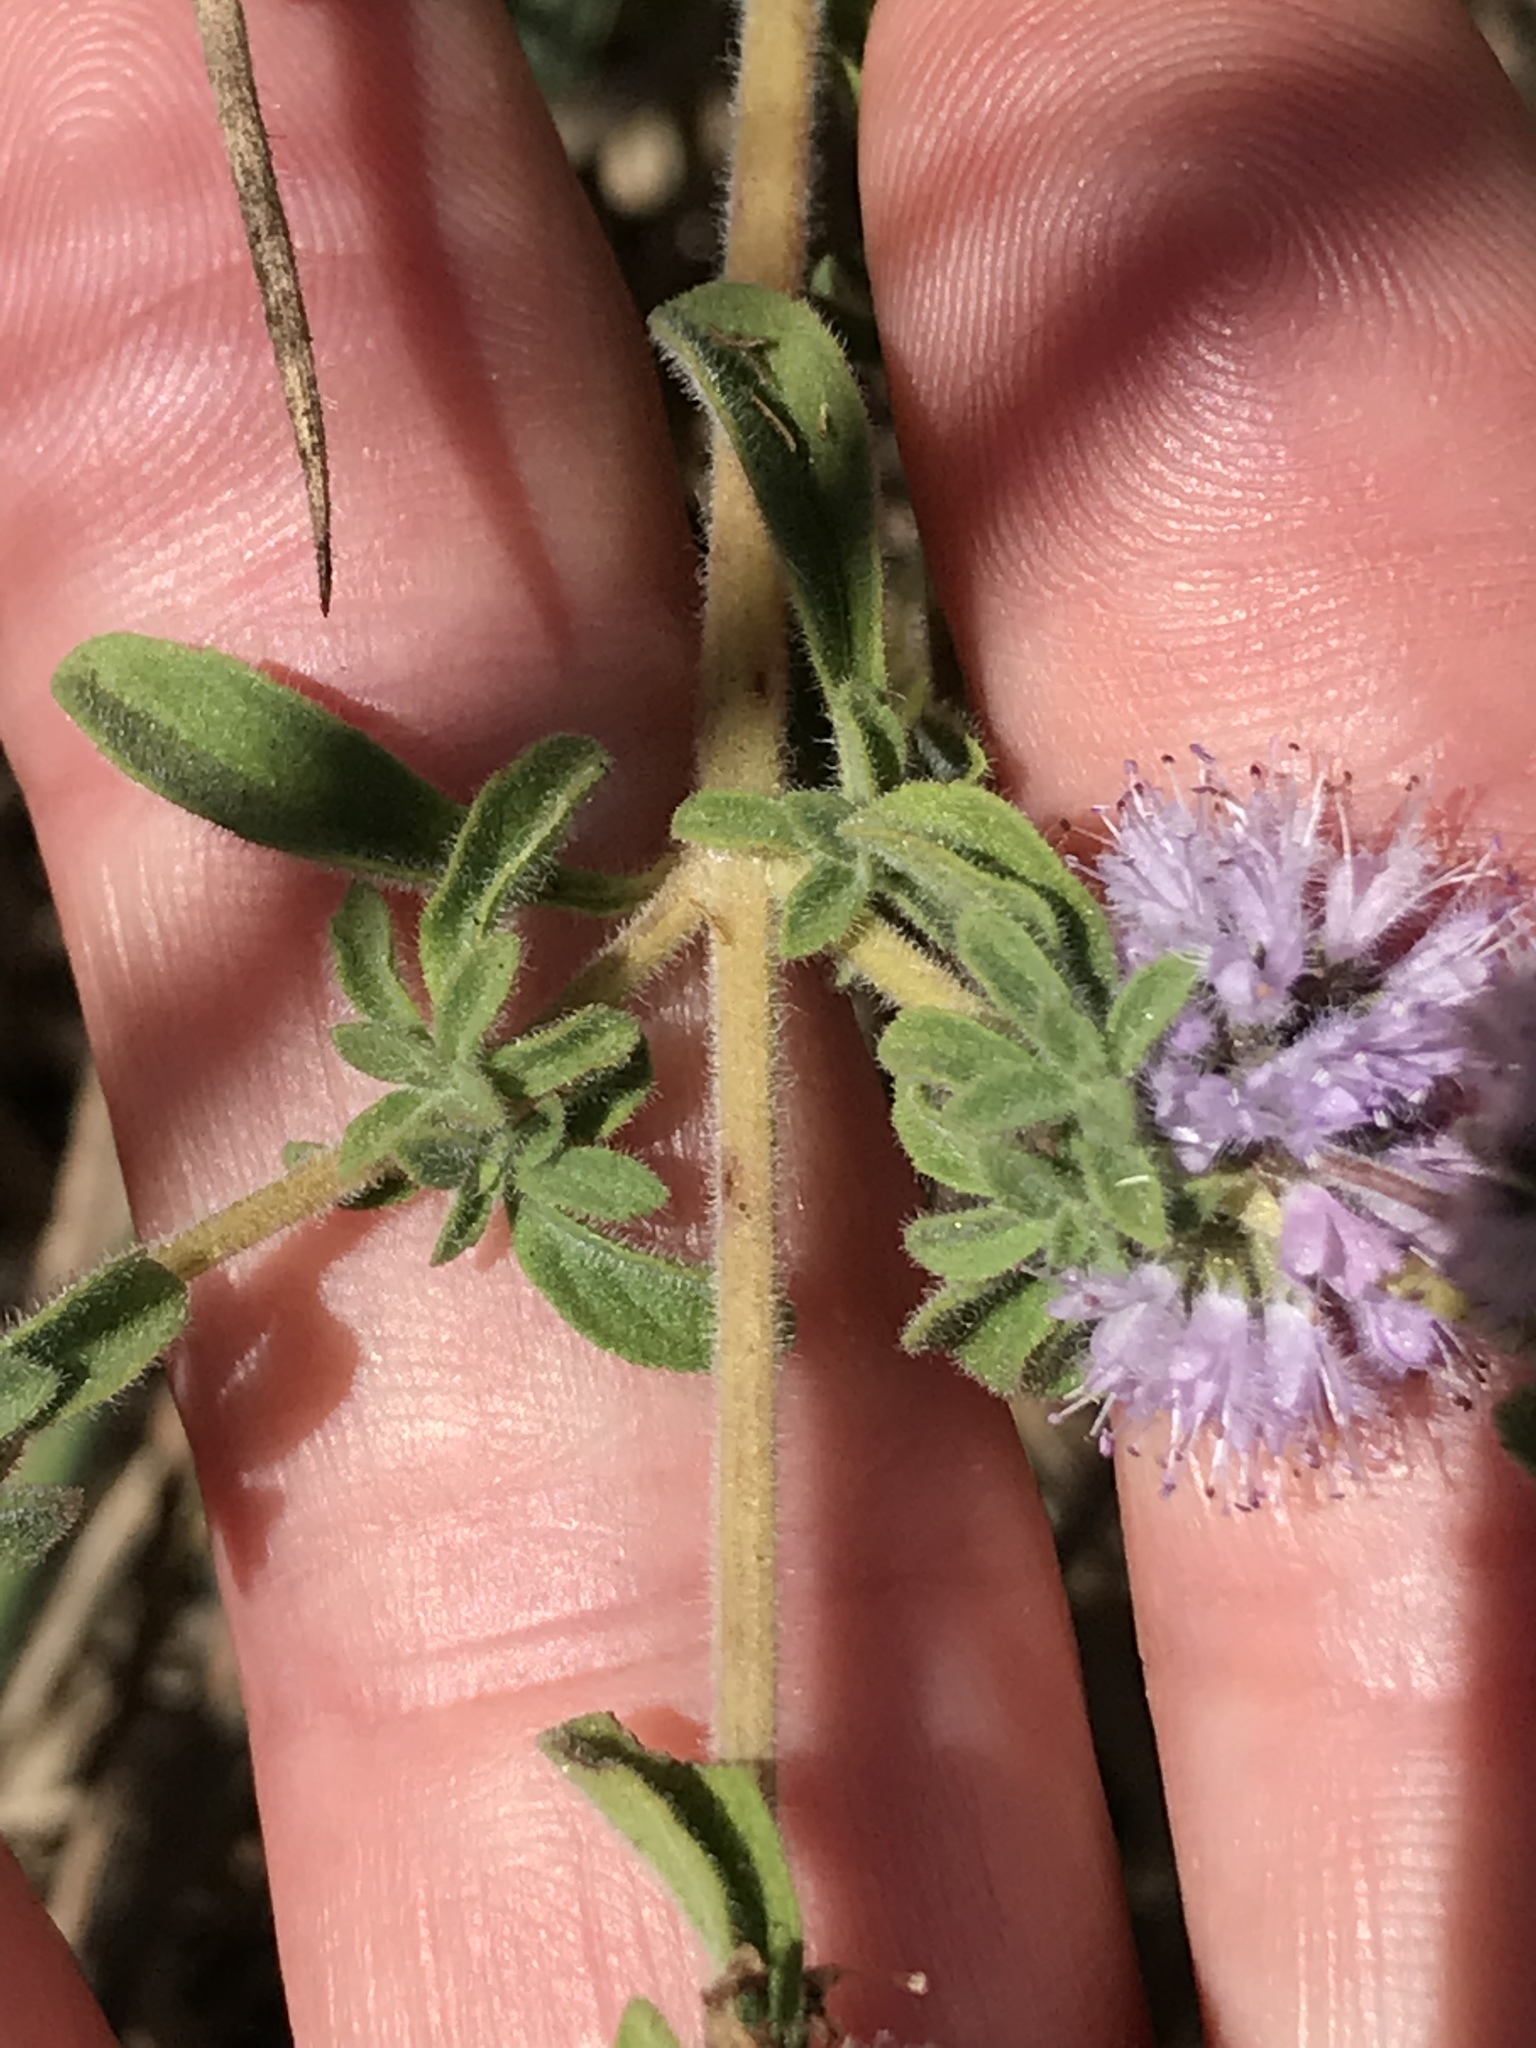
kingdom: Plantae
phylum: Tracheophyta
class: Magnoliopsida
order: Lamiales
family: Lamiaceae
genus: Mentha
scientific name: Mentha pulegium
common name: Pennyroyal
